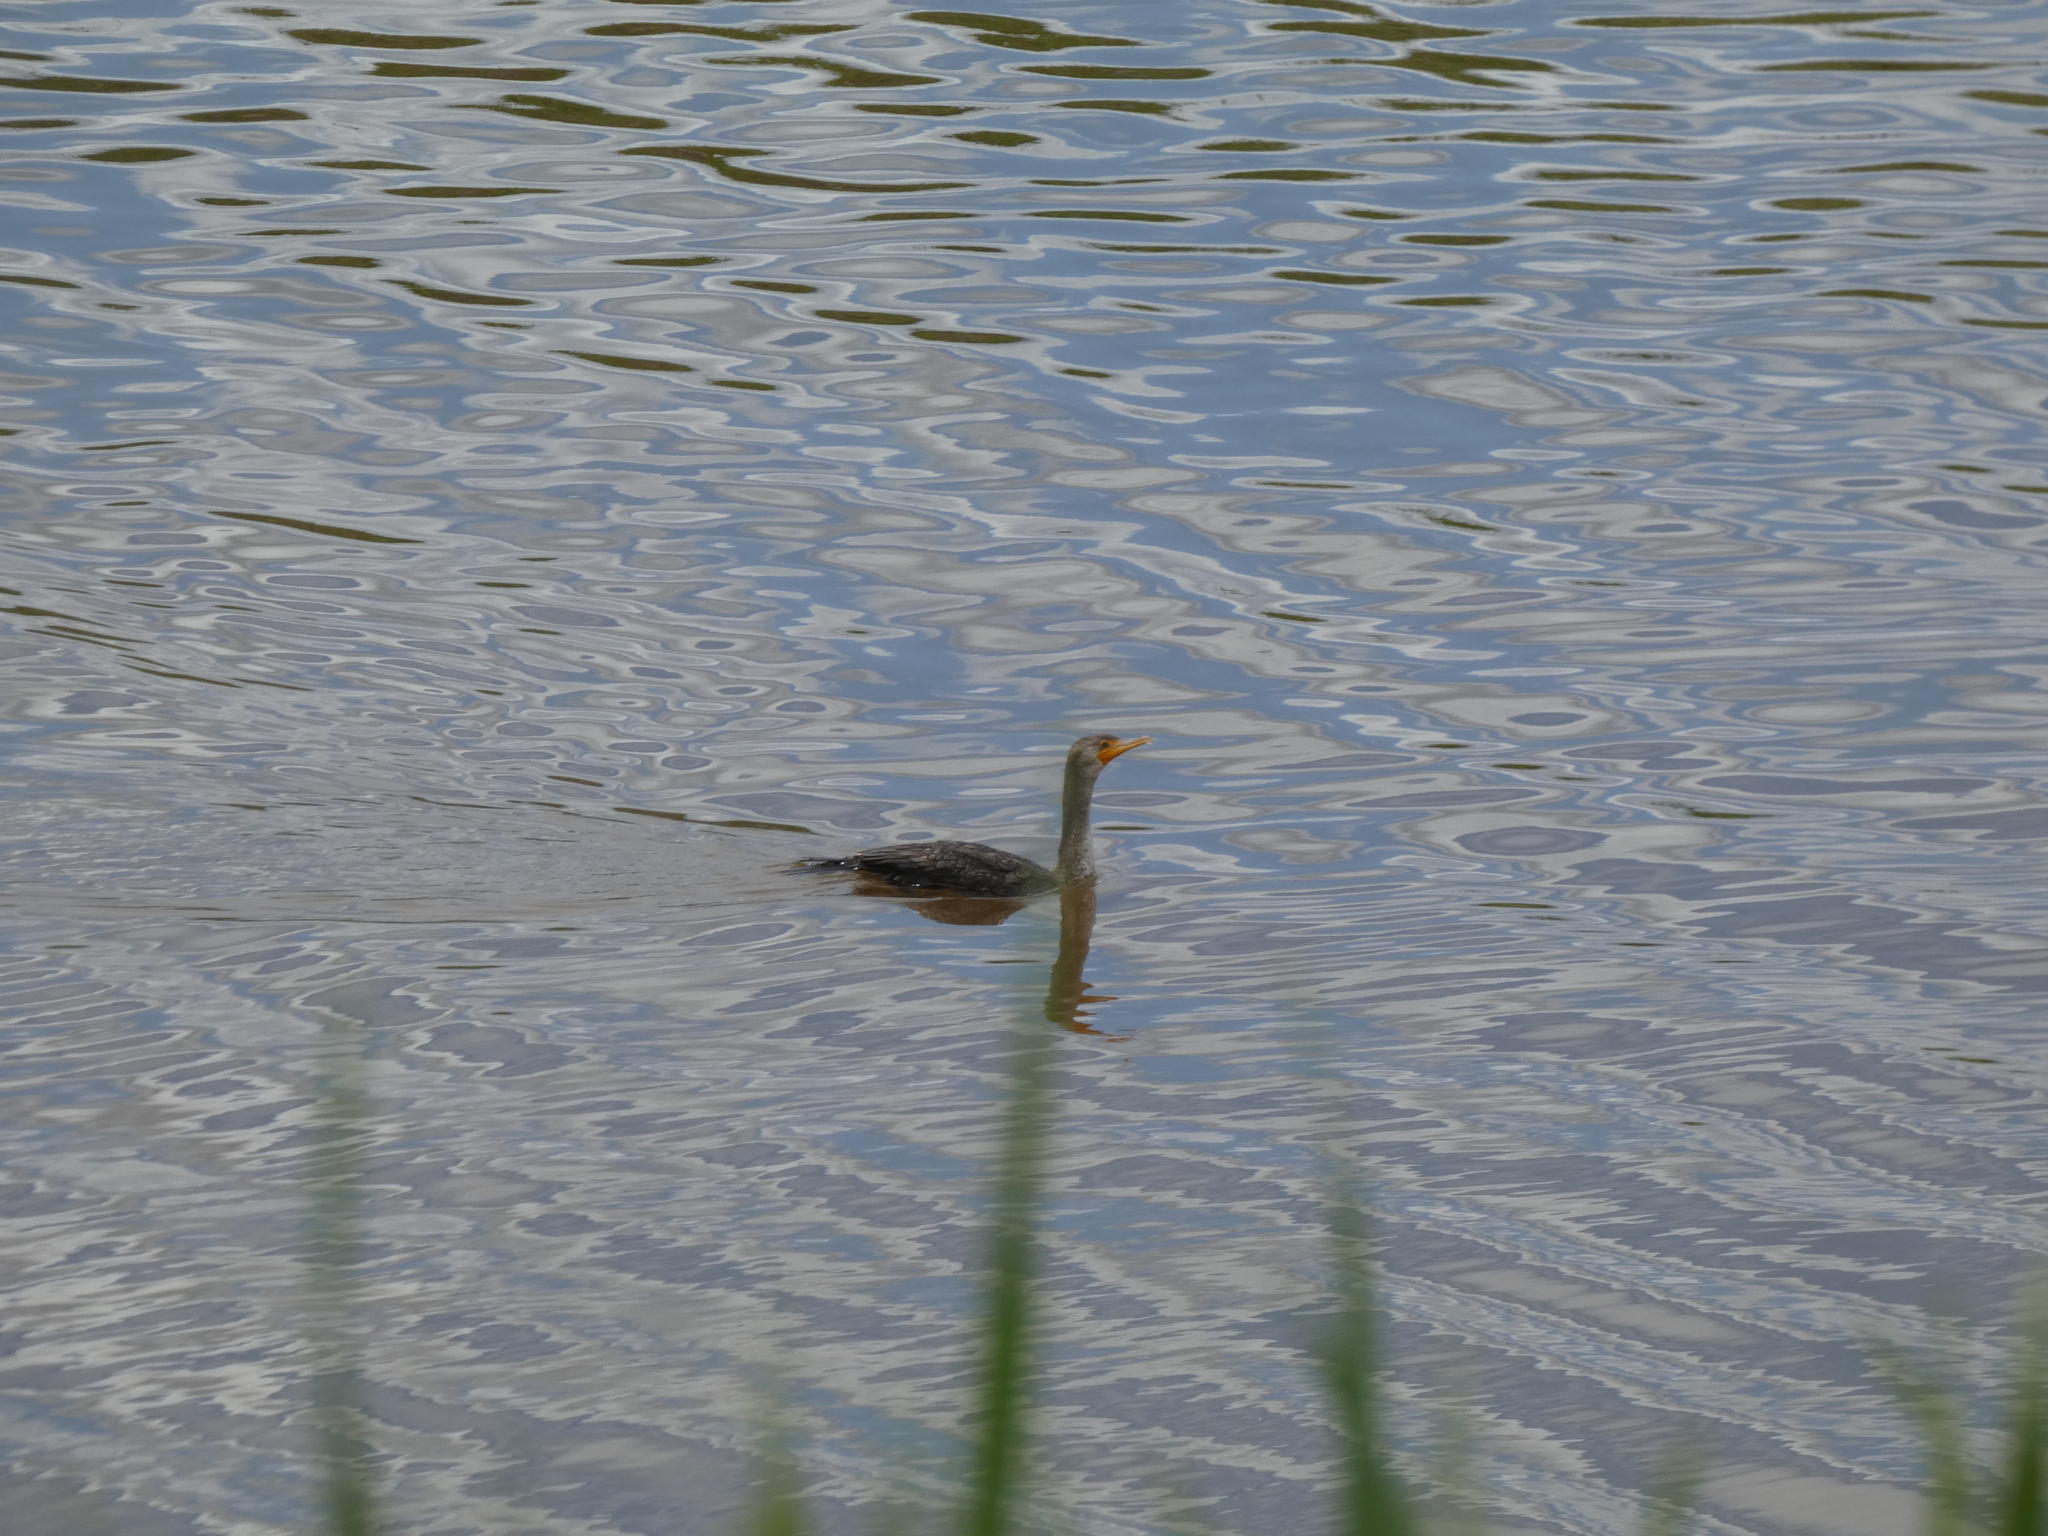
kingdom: Animalia
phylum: Chordata
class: Aves
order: Suliformes
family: Phalacrocoracidae
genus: Phalacrocorax
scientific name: Phalacrocorax auritus
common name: Double-crested cormorant
